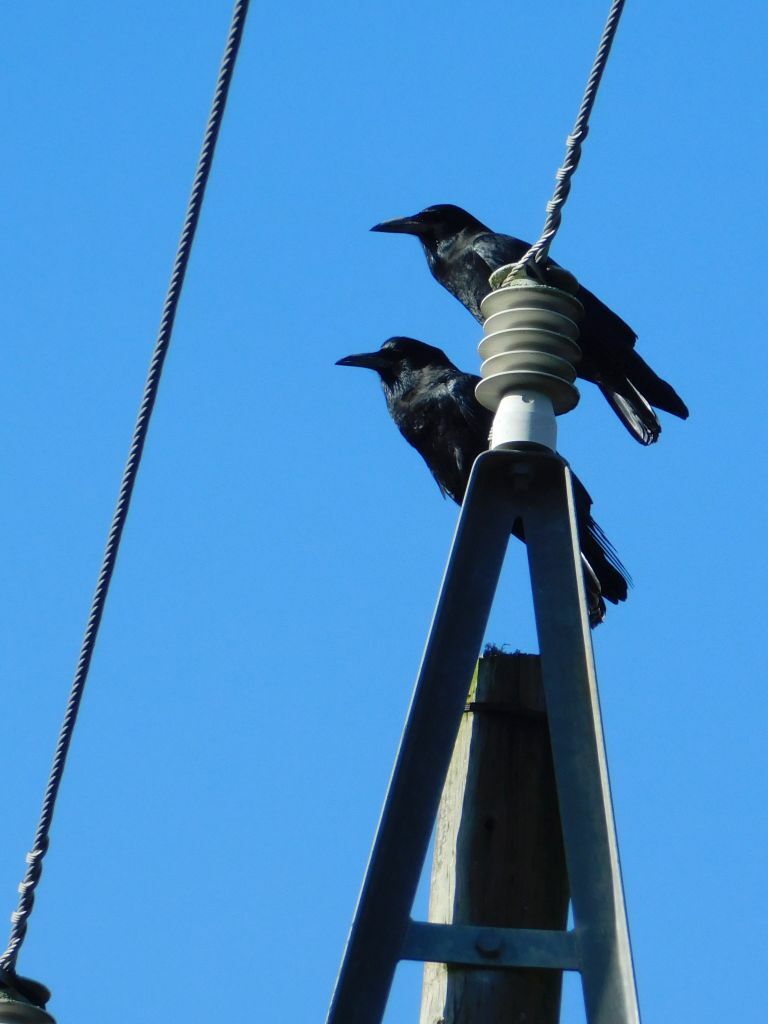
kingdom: Animalia
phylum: Chordata
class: Aves
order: Passeriformes
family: Corvidae
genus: Corvus
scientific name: Corvus capensis
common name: Cape crow
